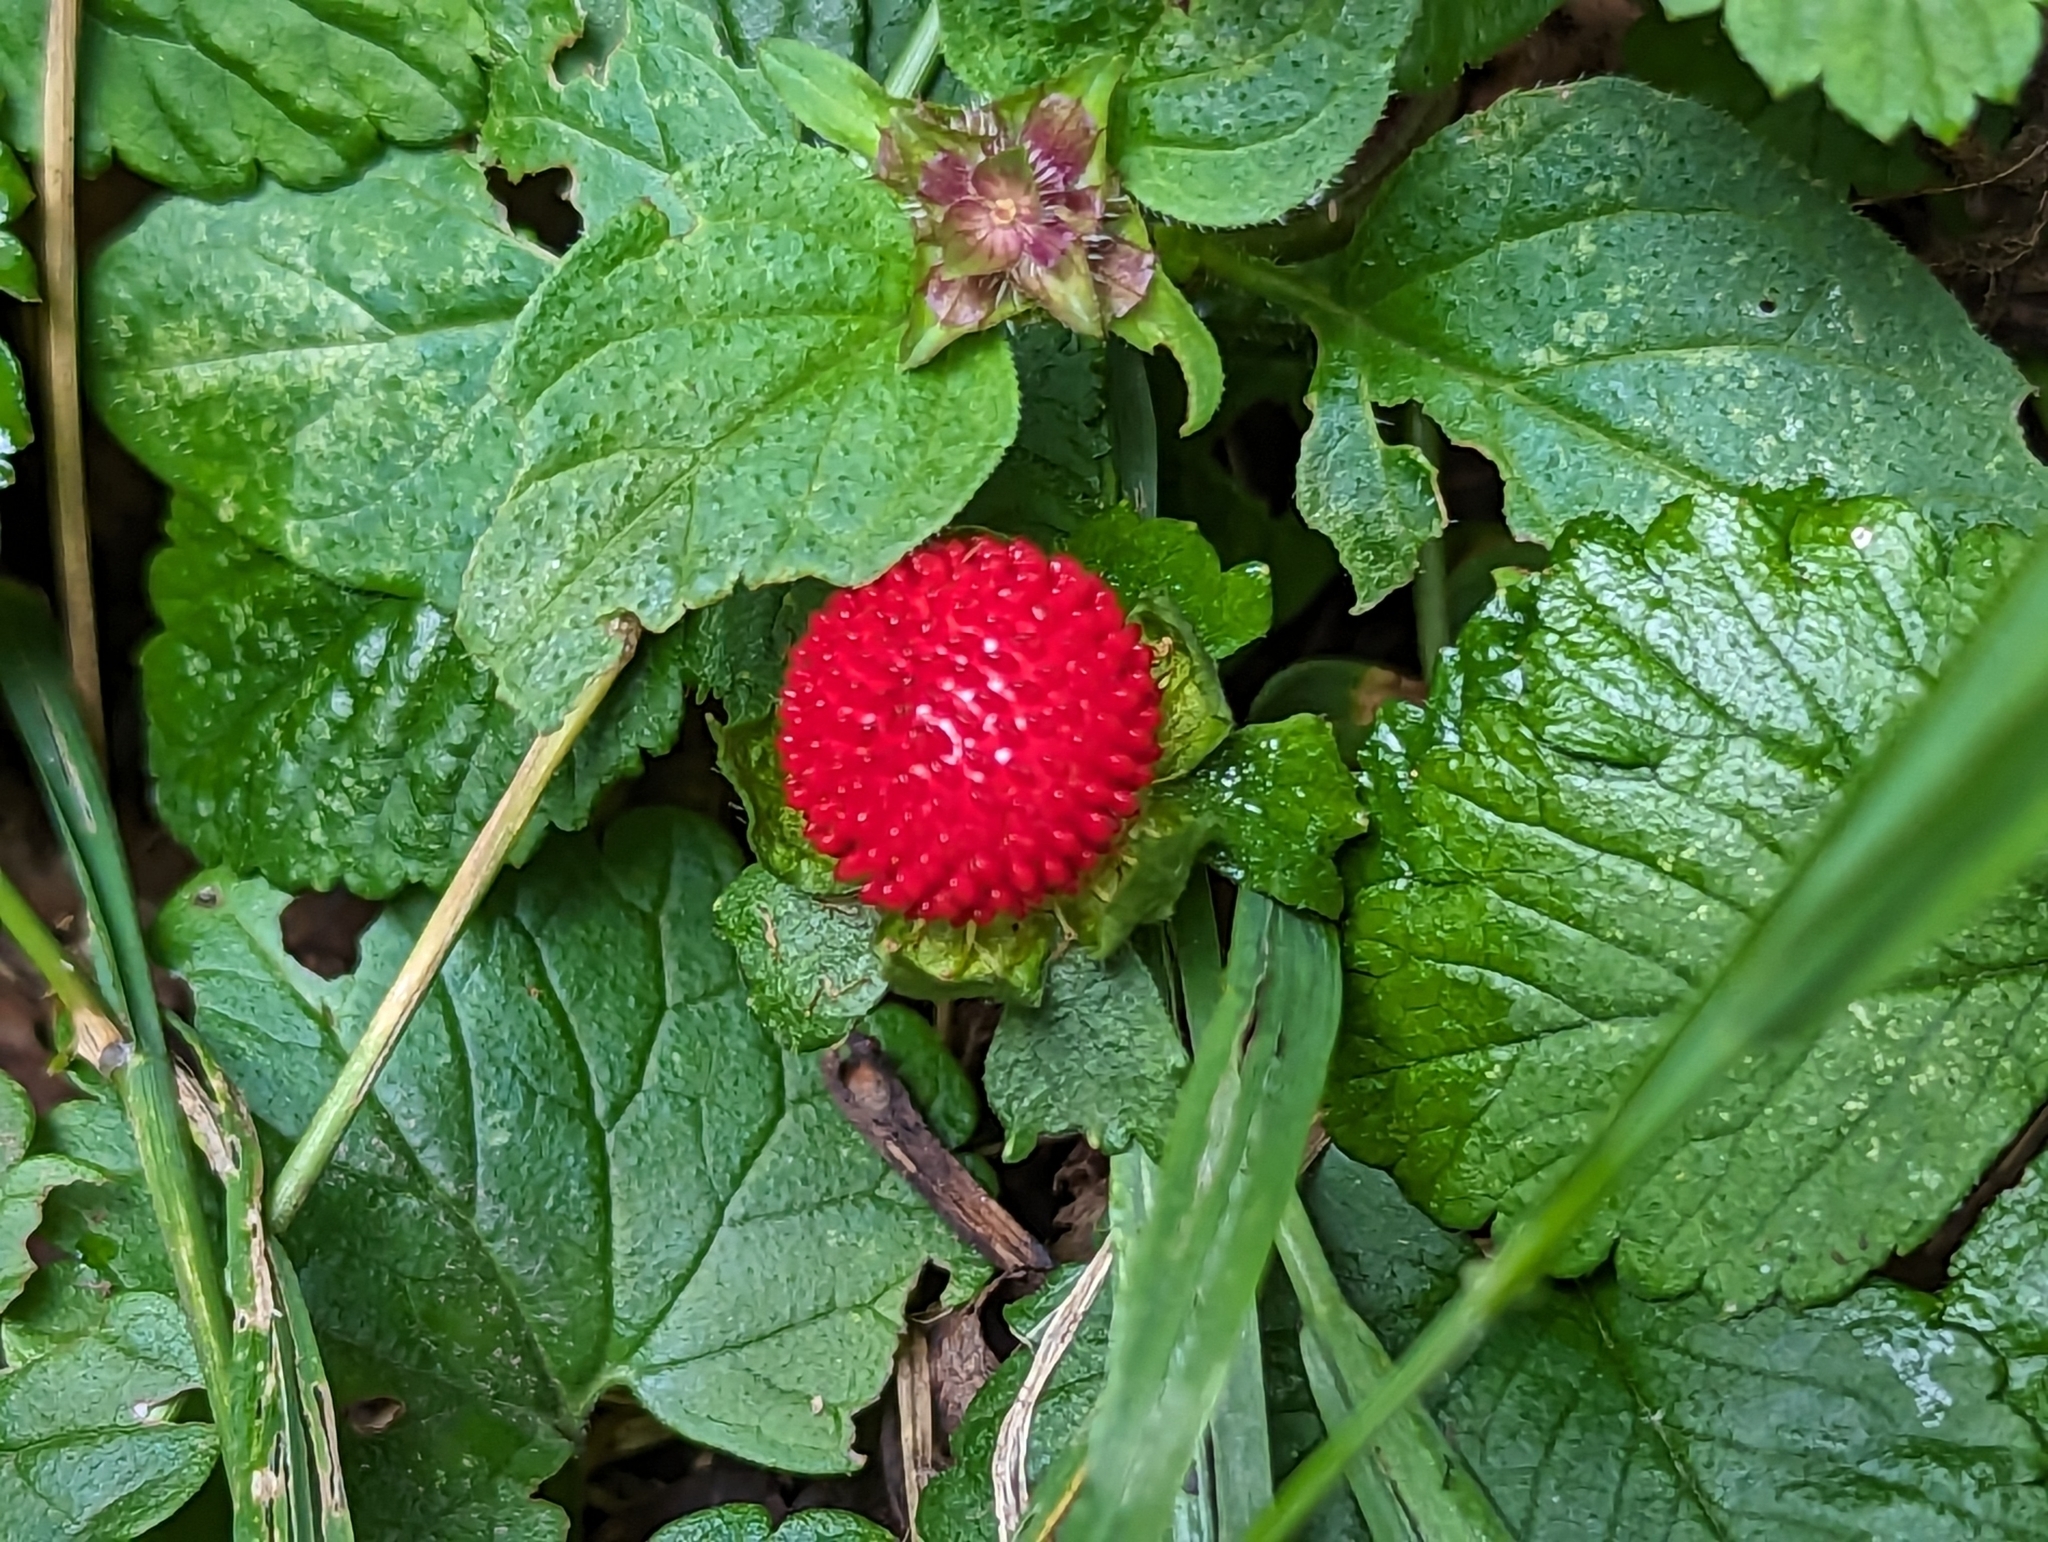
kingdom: Plantae
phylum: Tracheophyta
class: Magnoliopsida
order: Rosales
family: Rosaceae
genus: Potentilla
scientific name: Potentilla indica
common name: Yellow-flowered strawberry
